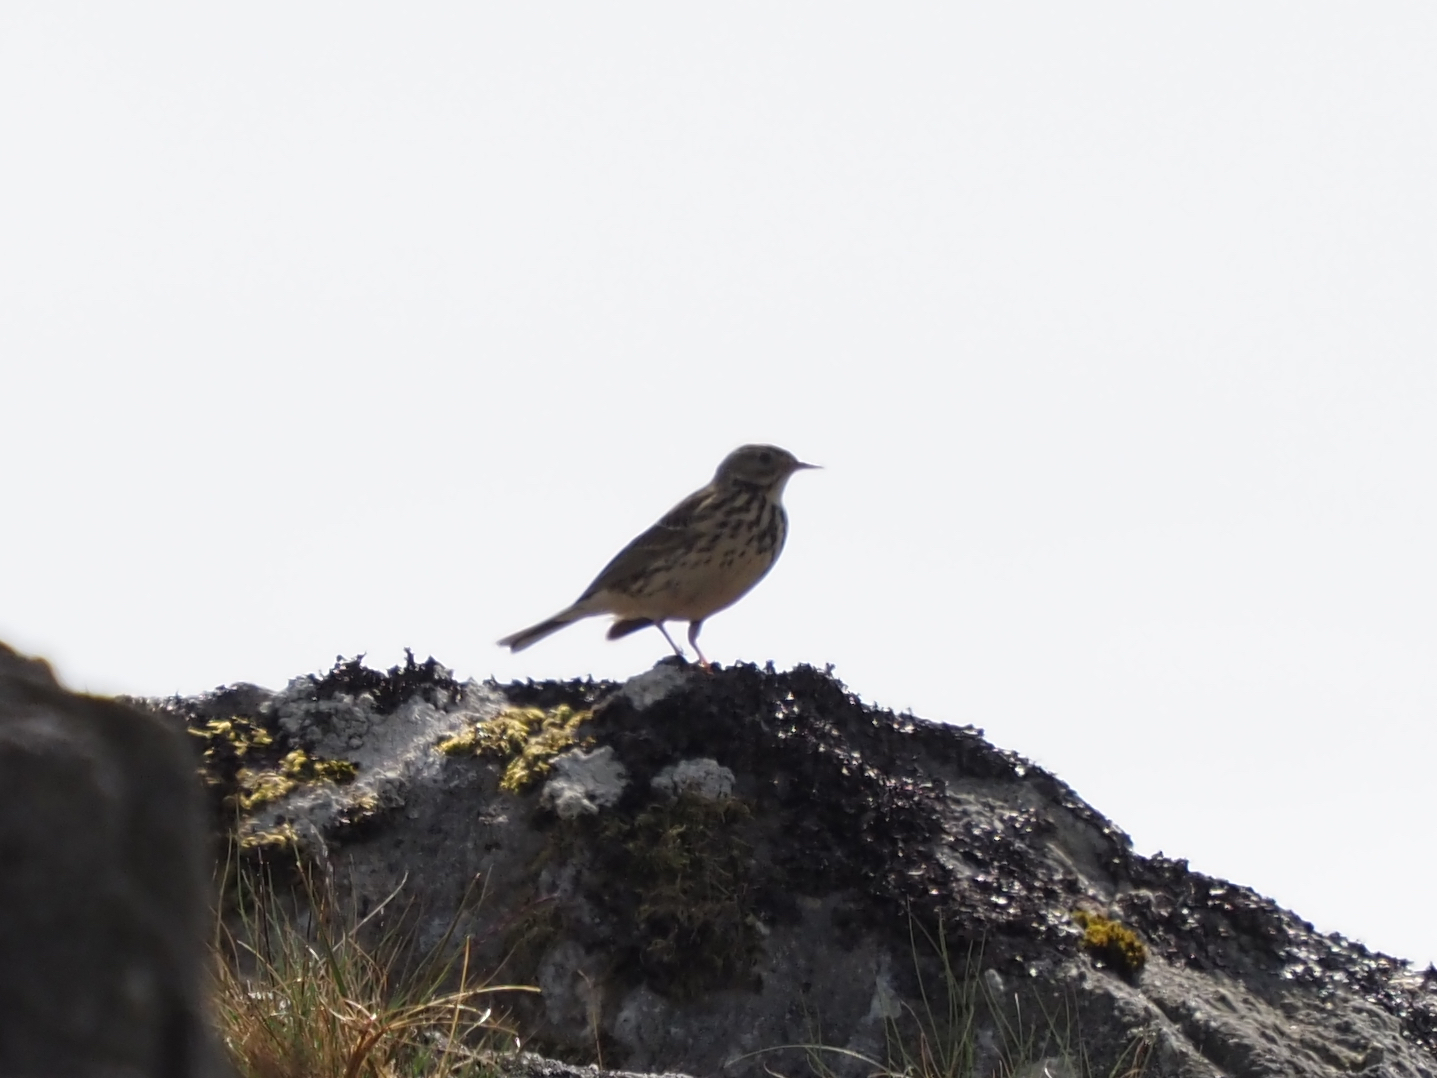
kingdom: Animalia
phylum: Chordata
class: Aves
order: Passeriformes
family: Motacillidae
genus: Anthus
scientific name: Anthus pratensis
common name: Meadow pipit
